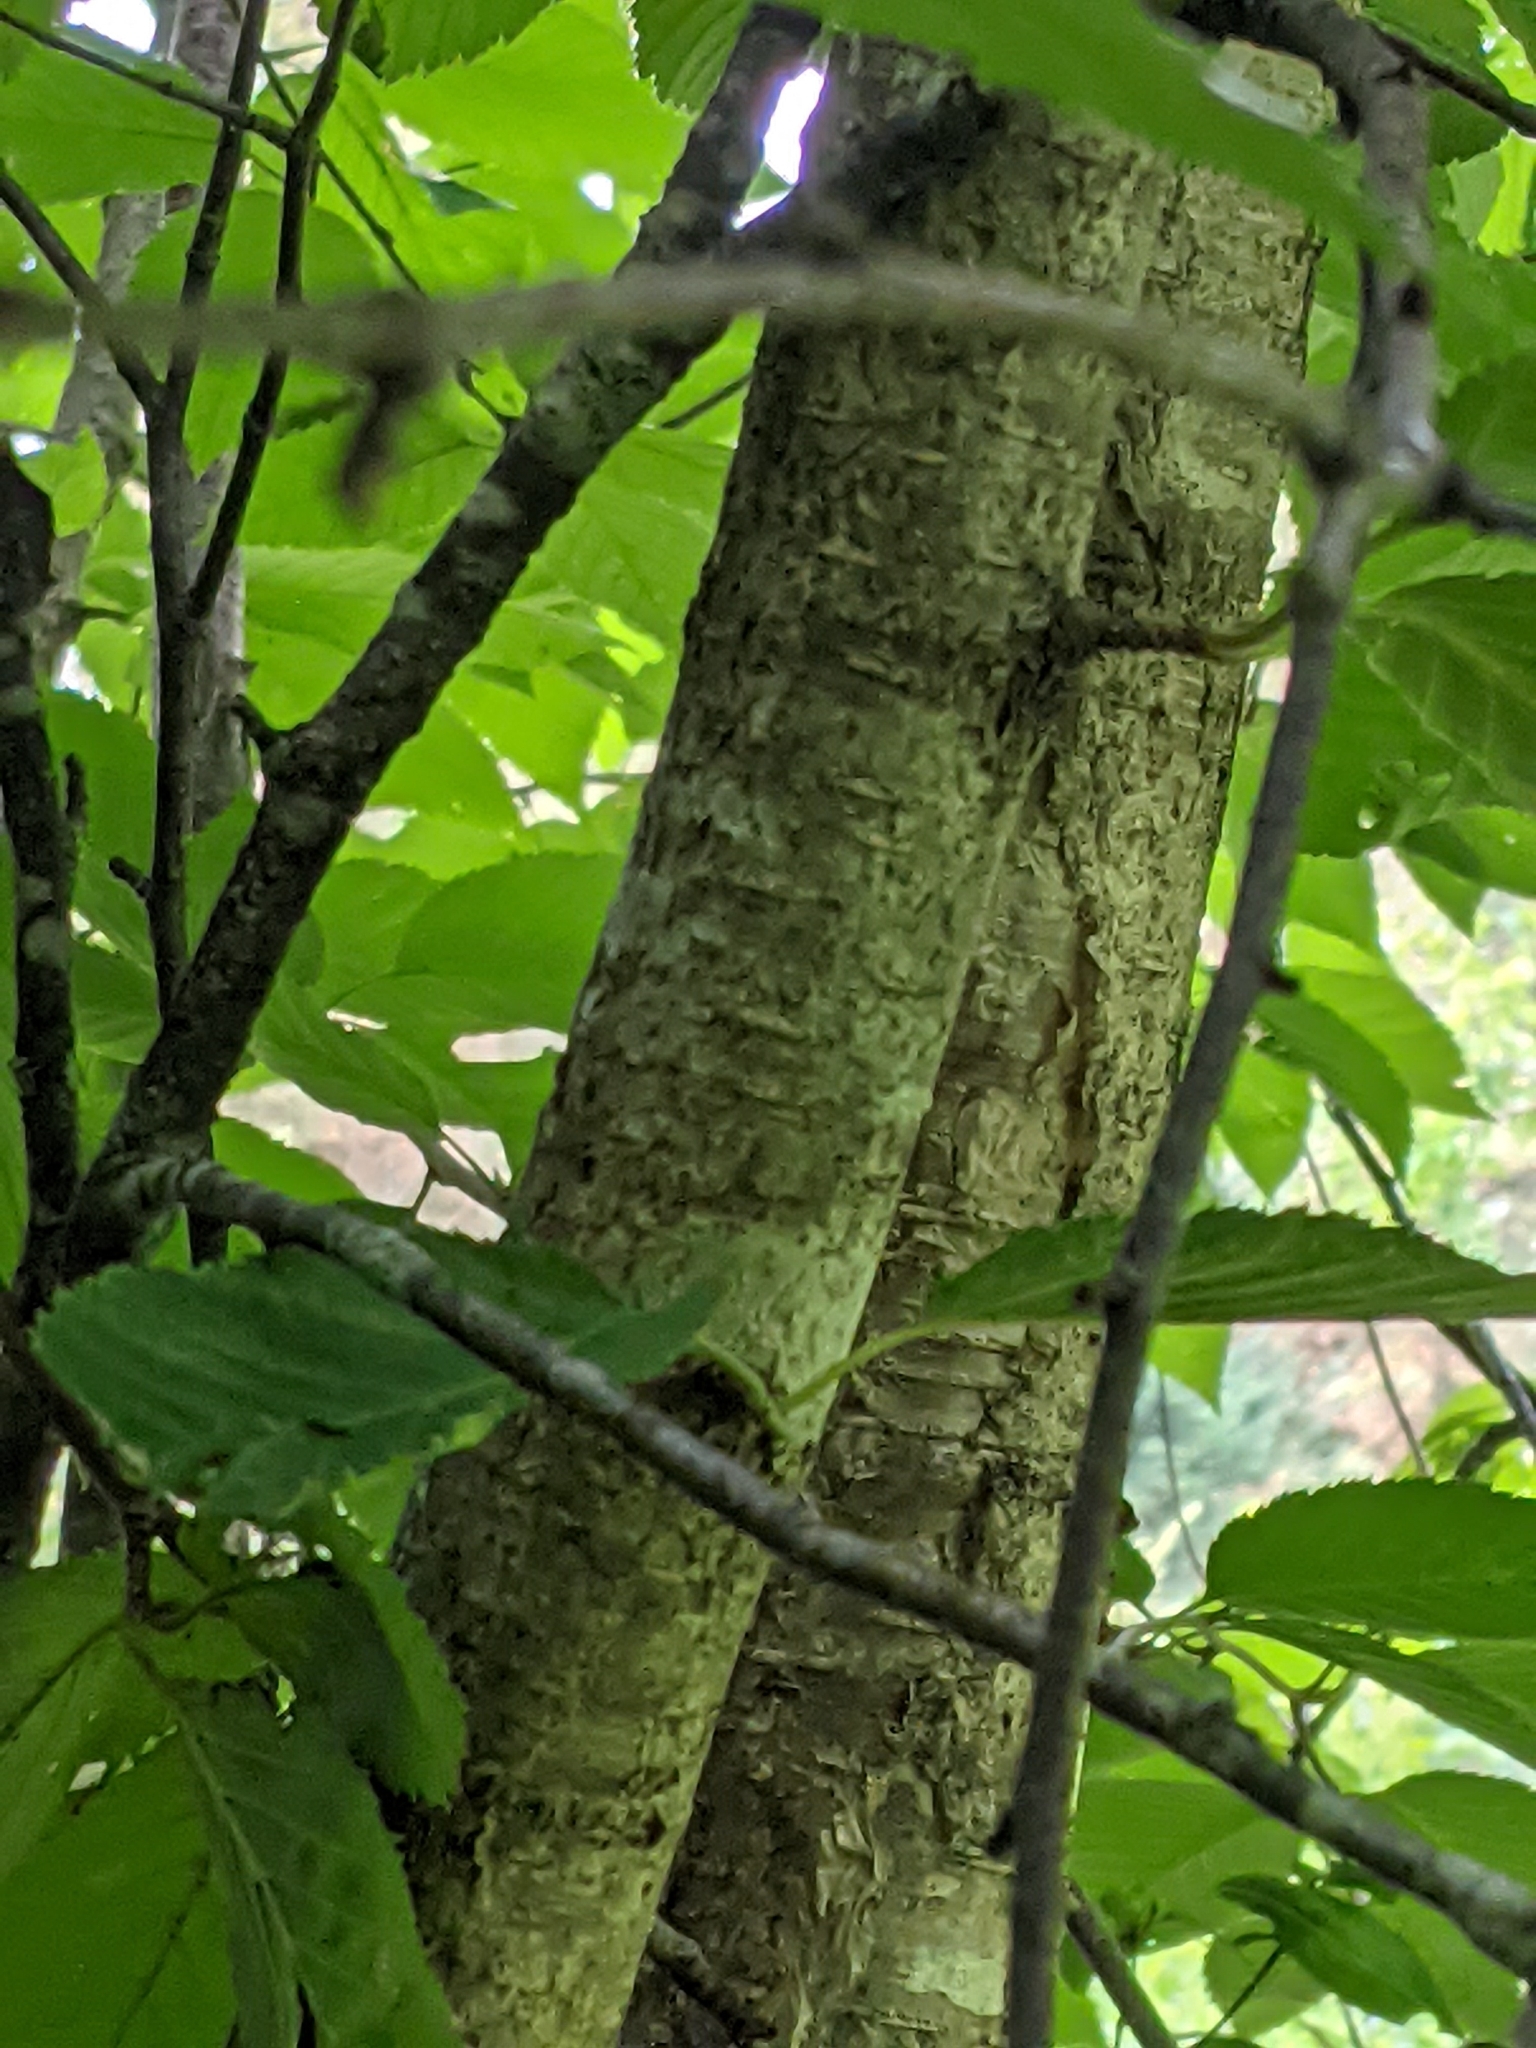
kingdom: Plantae
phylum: Tracheophyta
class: Magnoliopsida
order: Fagales
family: Betulaceae
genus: Betula
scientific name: Betula alleghaniensis
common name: Yellow birch
